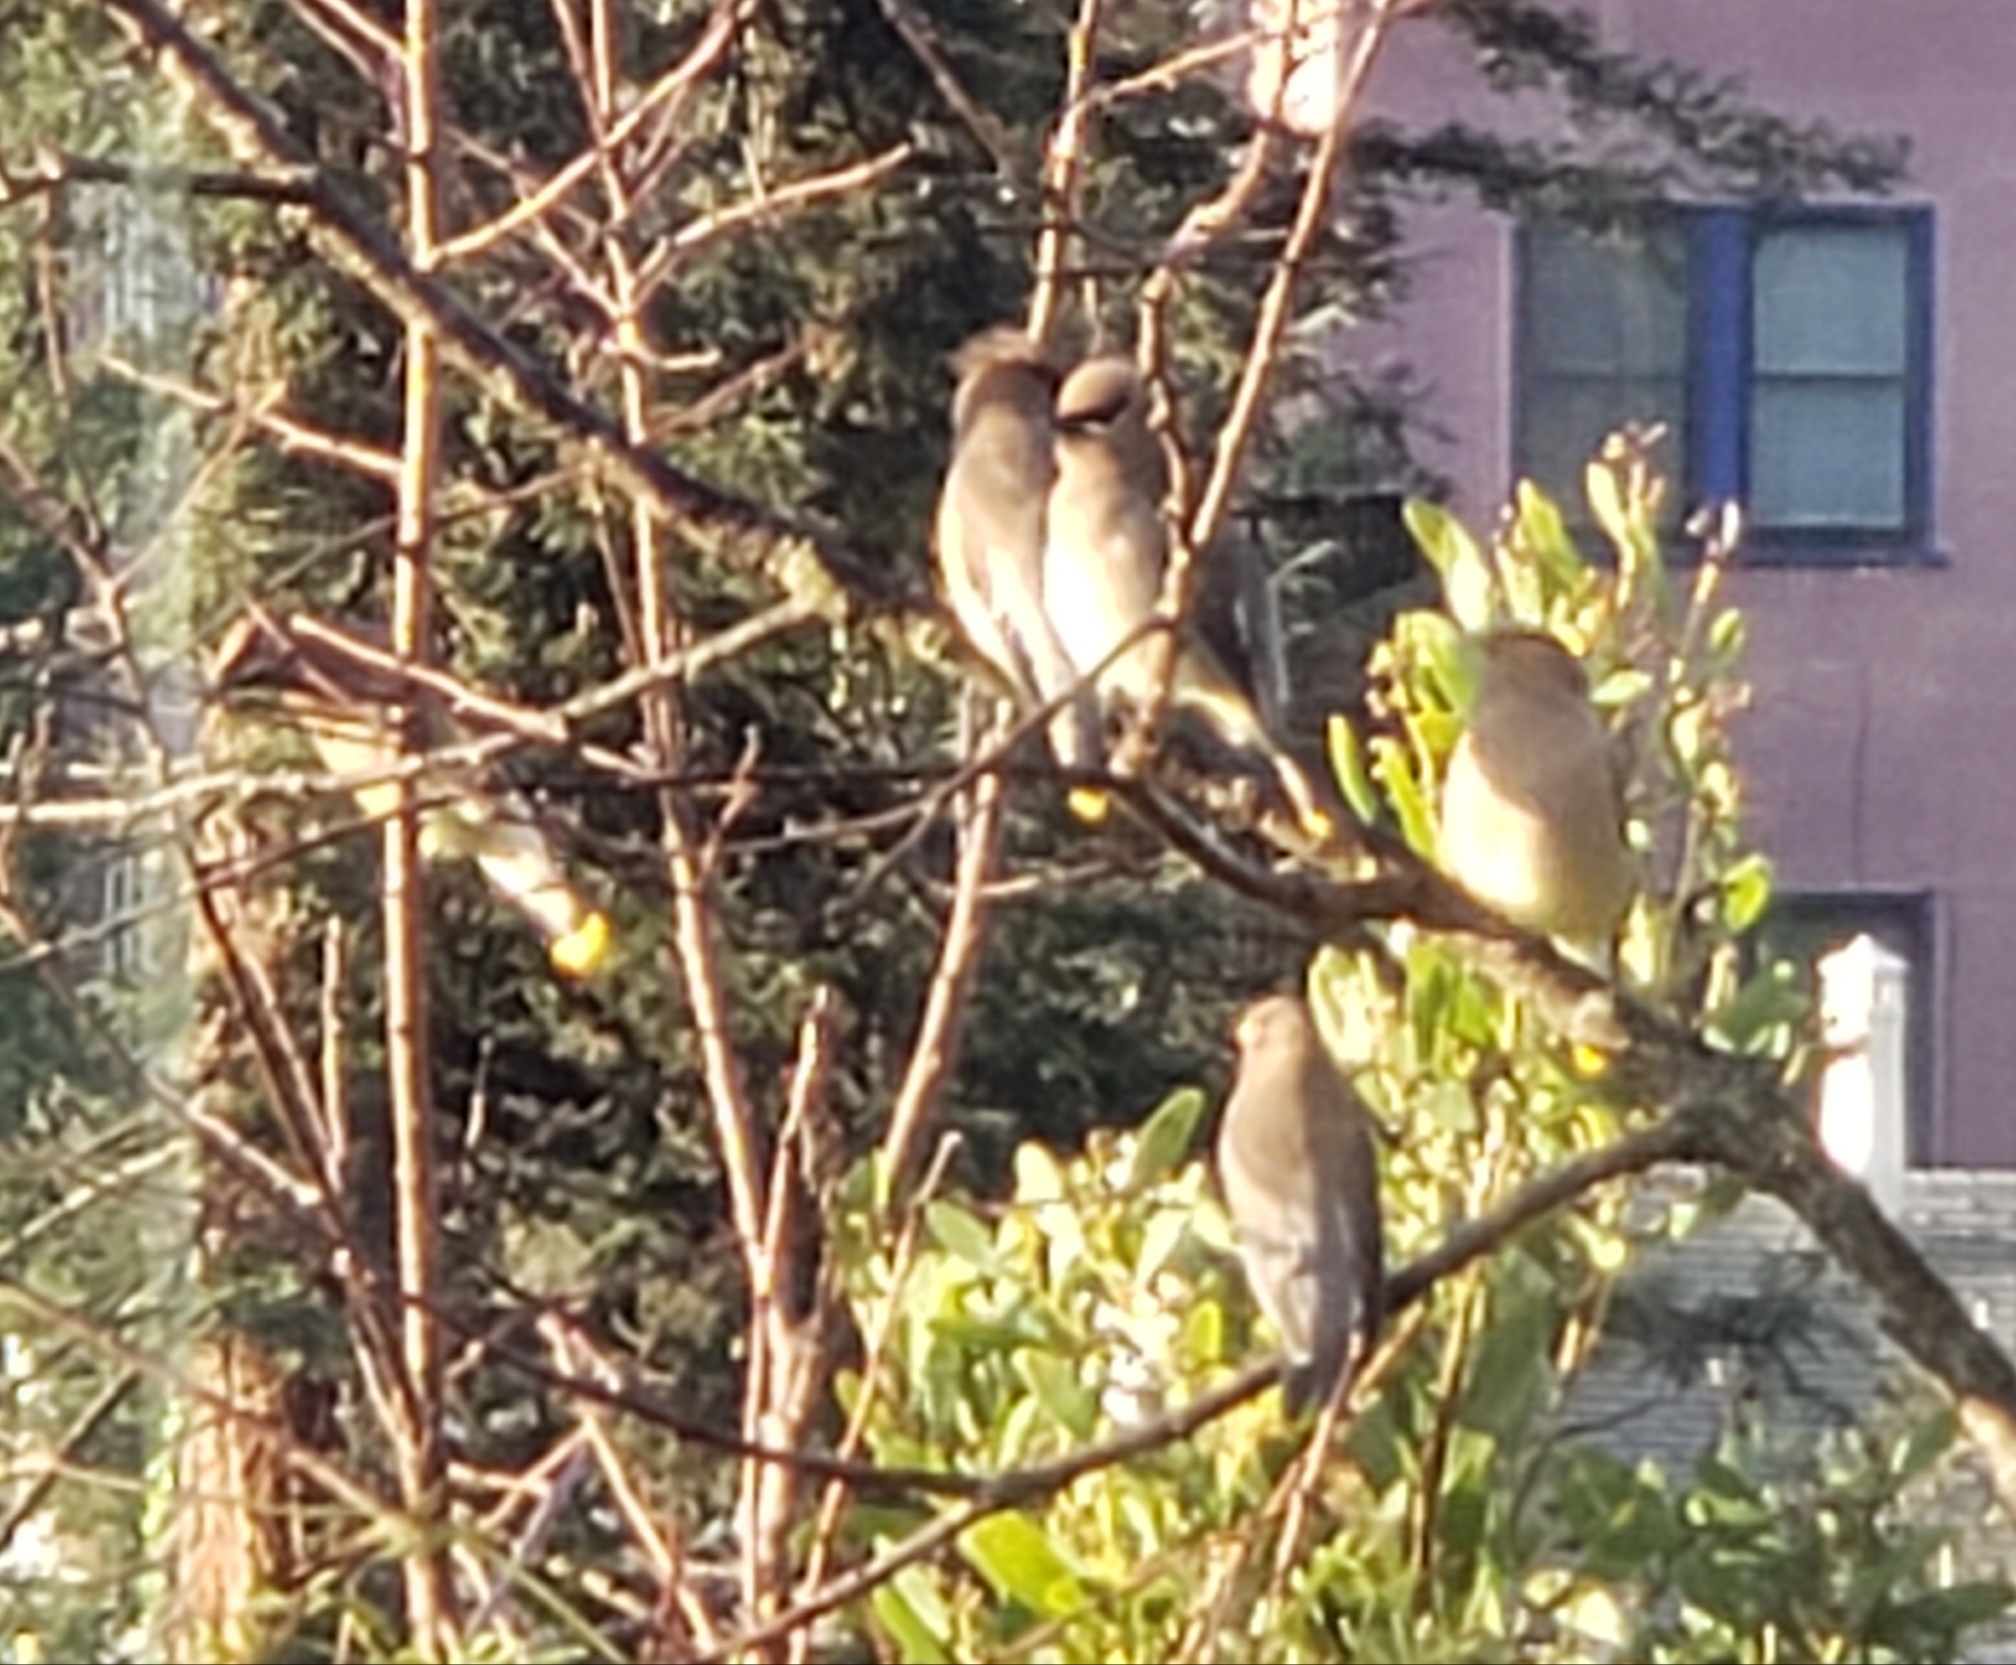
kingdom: Animalia
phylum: Chordata
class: Aves
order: Passeriformes
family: Bombycillidae
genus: Bombycilla
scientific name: Bombycilla cedrorum
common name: Cedar waxwing
